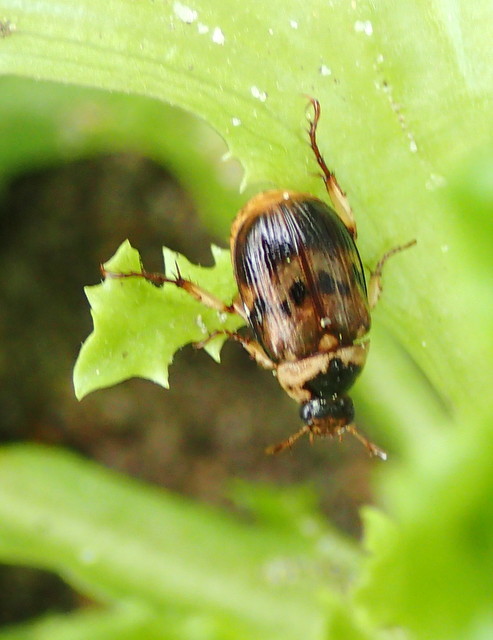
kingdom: Animalia
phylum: Arthropoda
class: Insecta
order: Coleoptera
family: Scarabaeidae
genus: Anomala
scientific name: Anomala innuba
